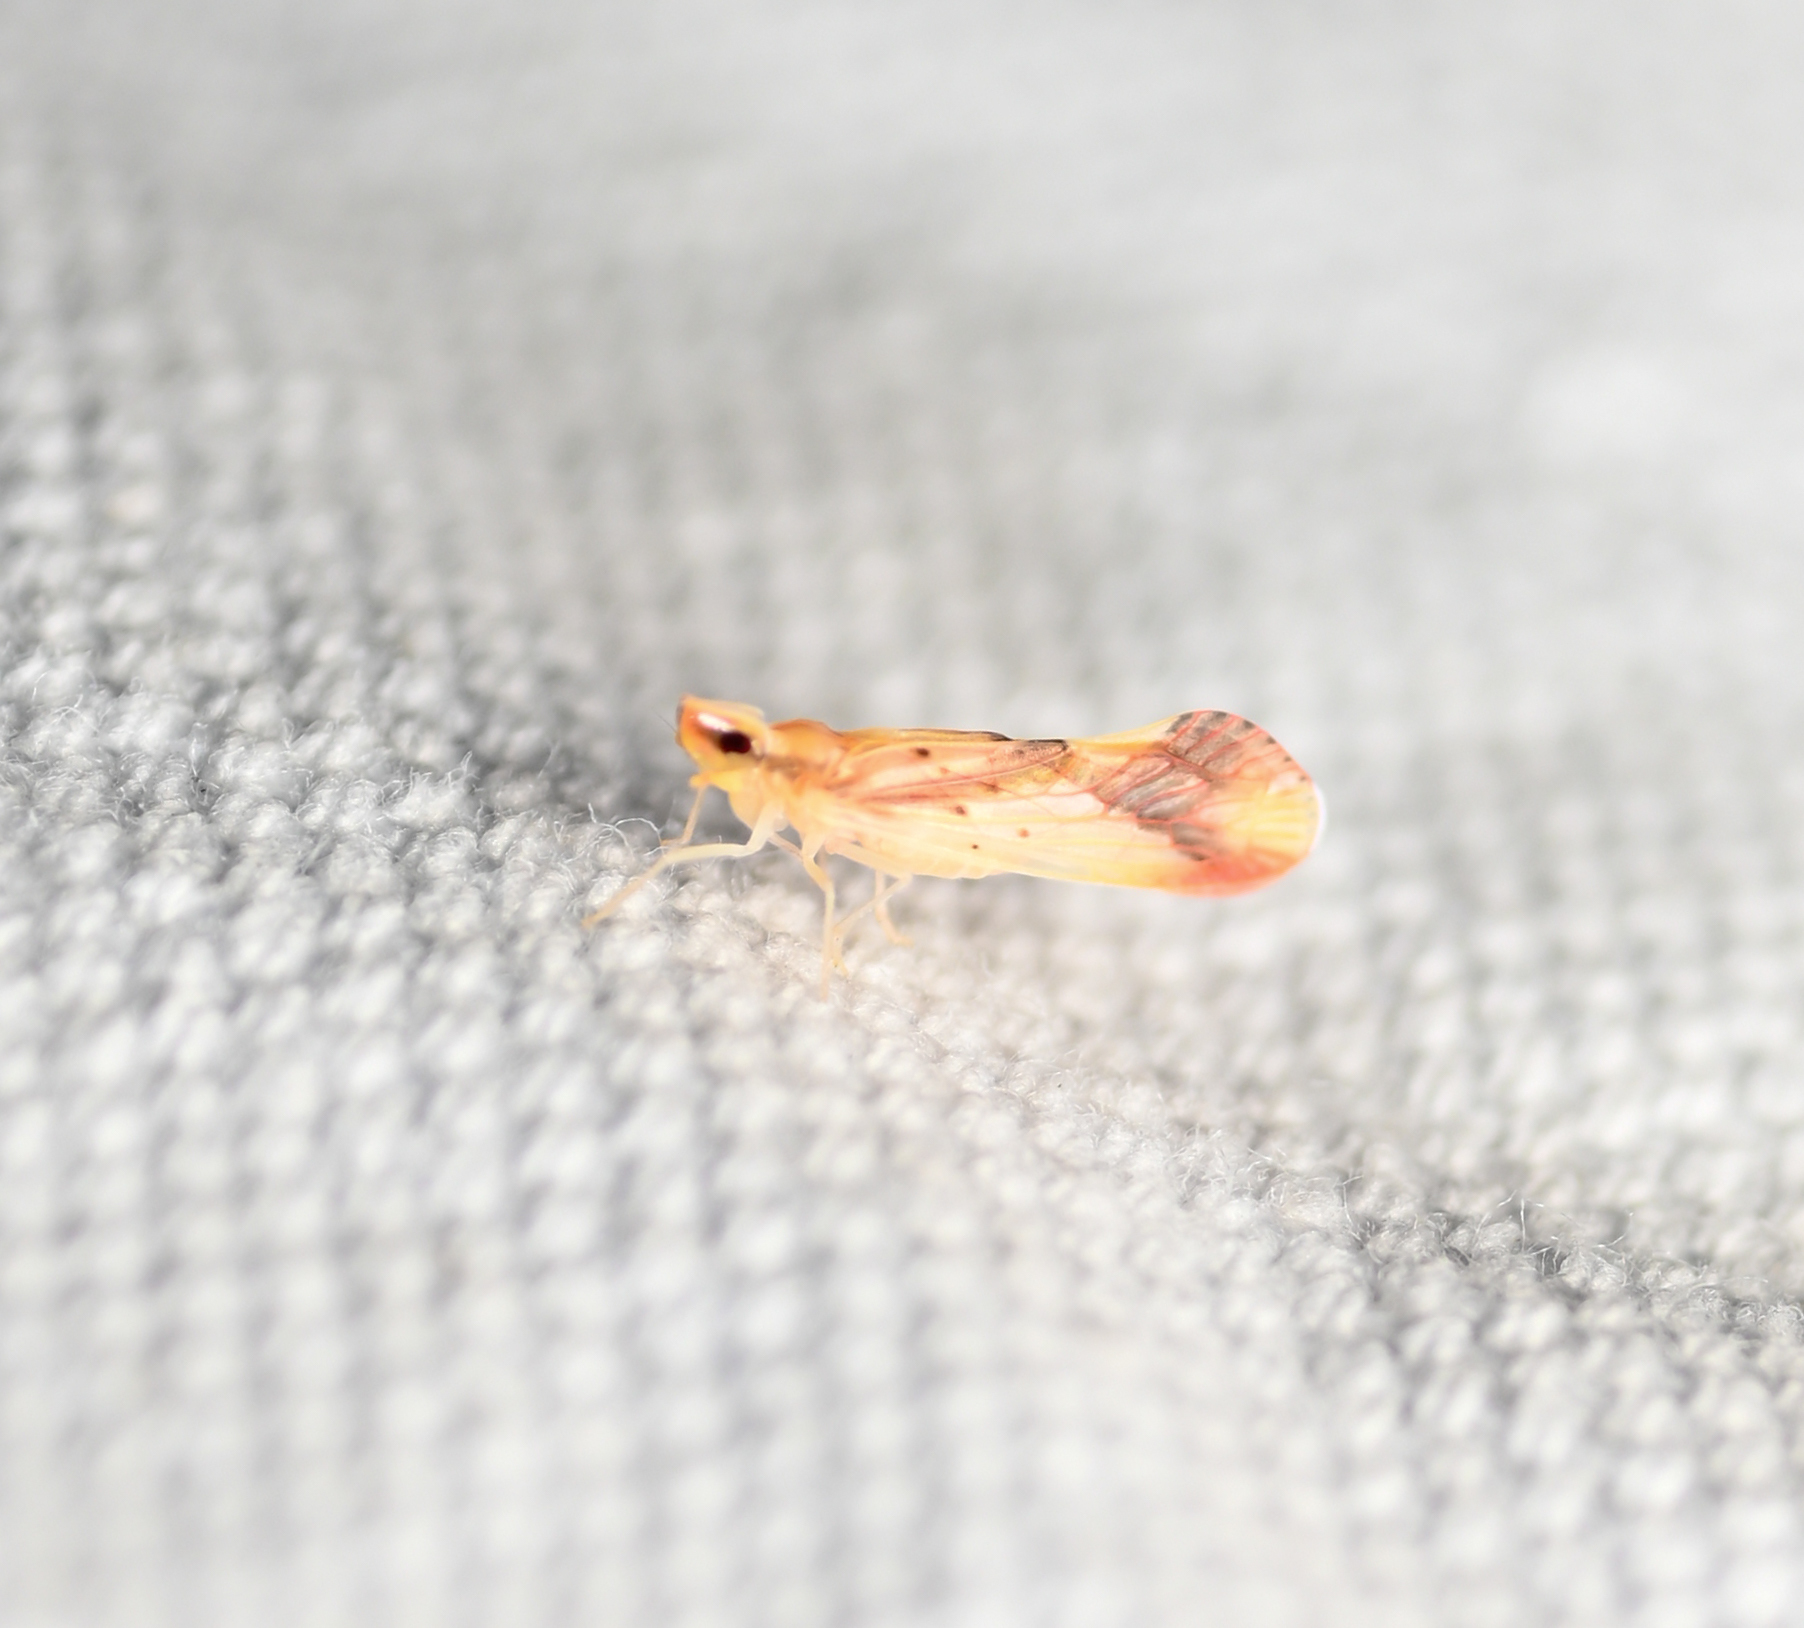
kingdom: Animalia
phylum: Arthropoda
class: Insecta
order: Hemiptera
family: Derbidae
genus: Otiocerus
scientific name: Otiocerus reaumurii
